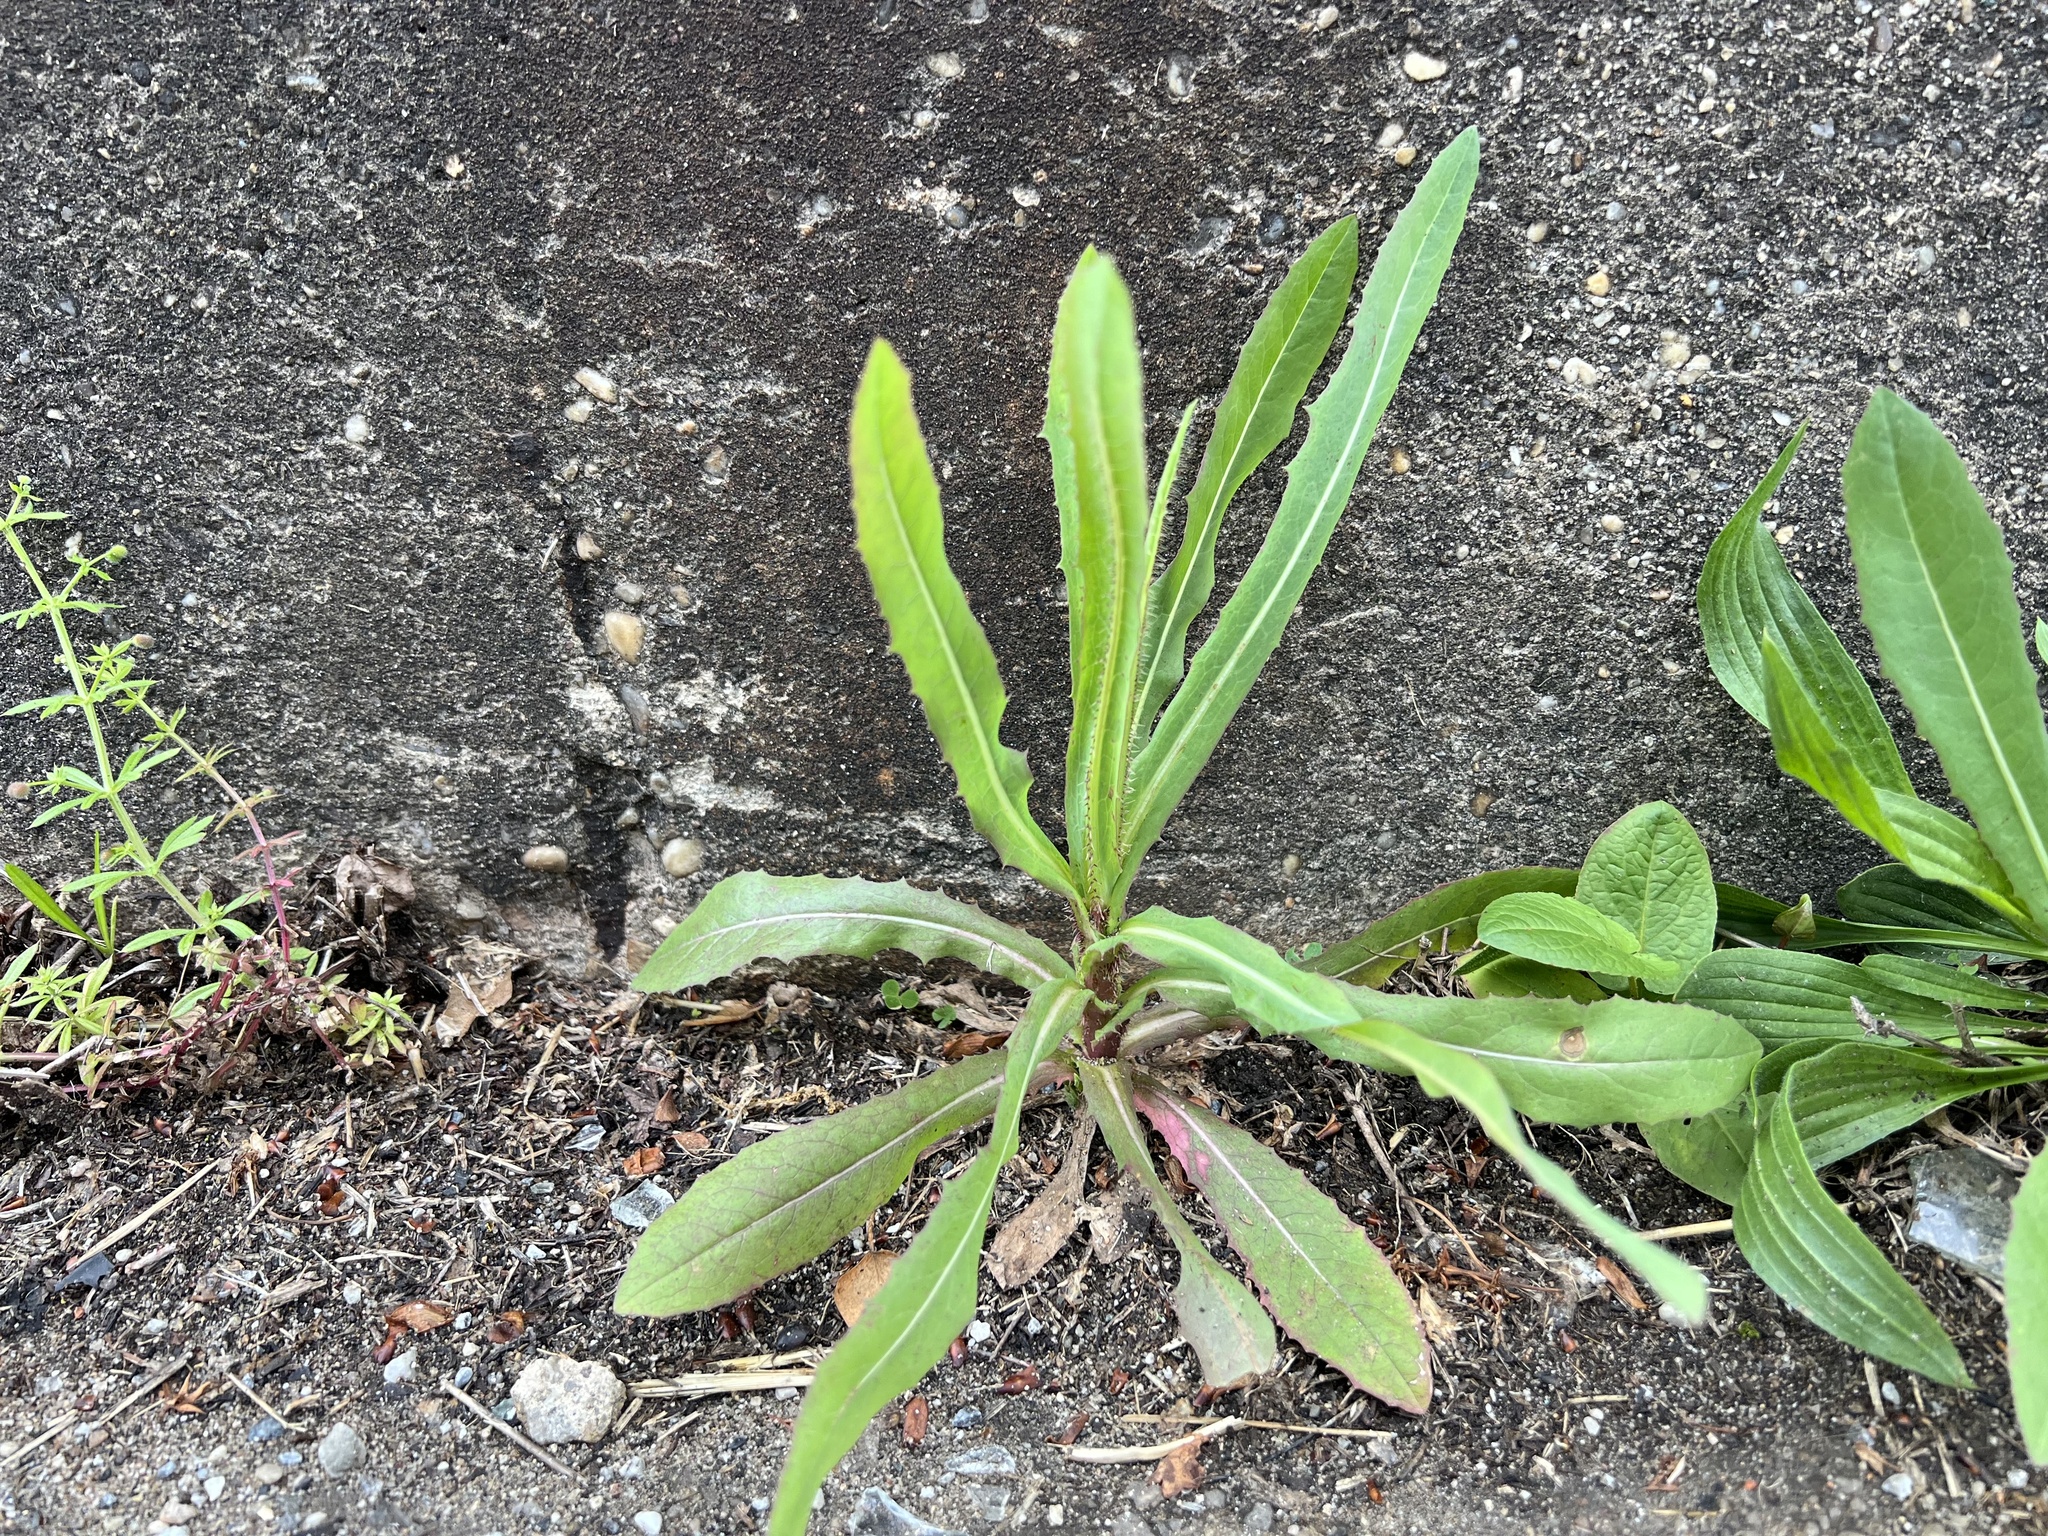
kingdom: Plantae
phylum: Tracheophyta
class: Magnoliopsida
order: Asterales
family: Asteraceae
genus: Lactuca
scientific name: Lactuca serriola
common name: Prickly lettuce
